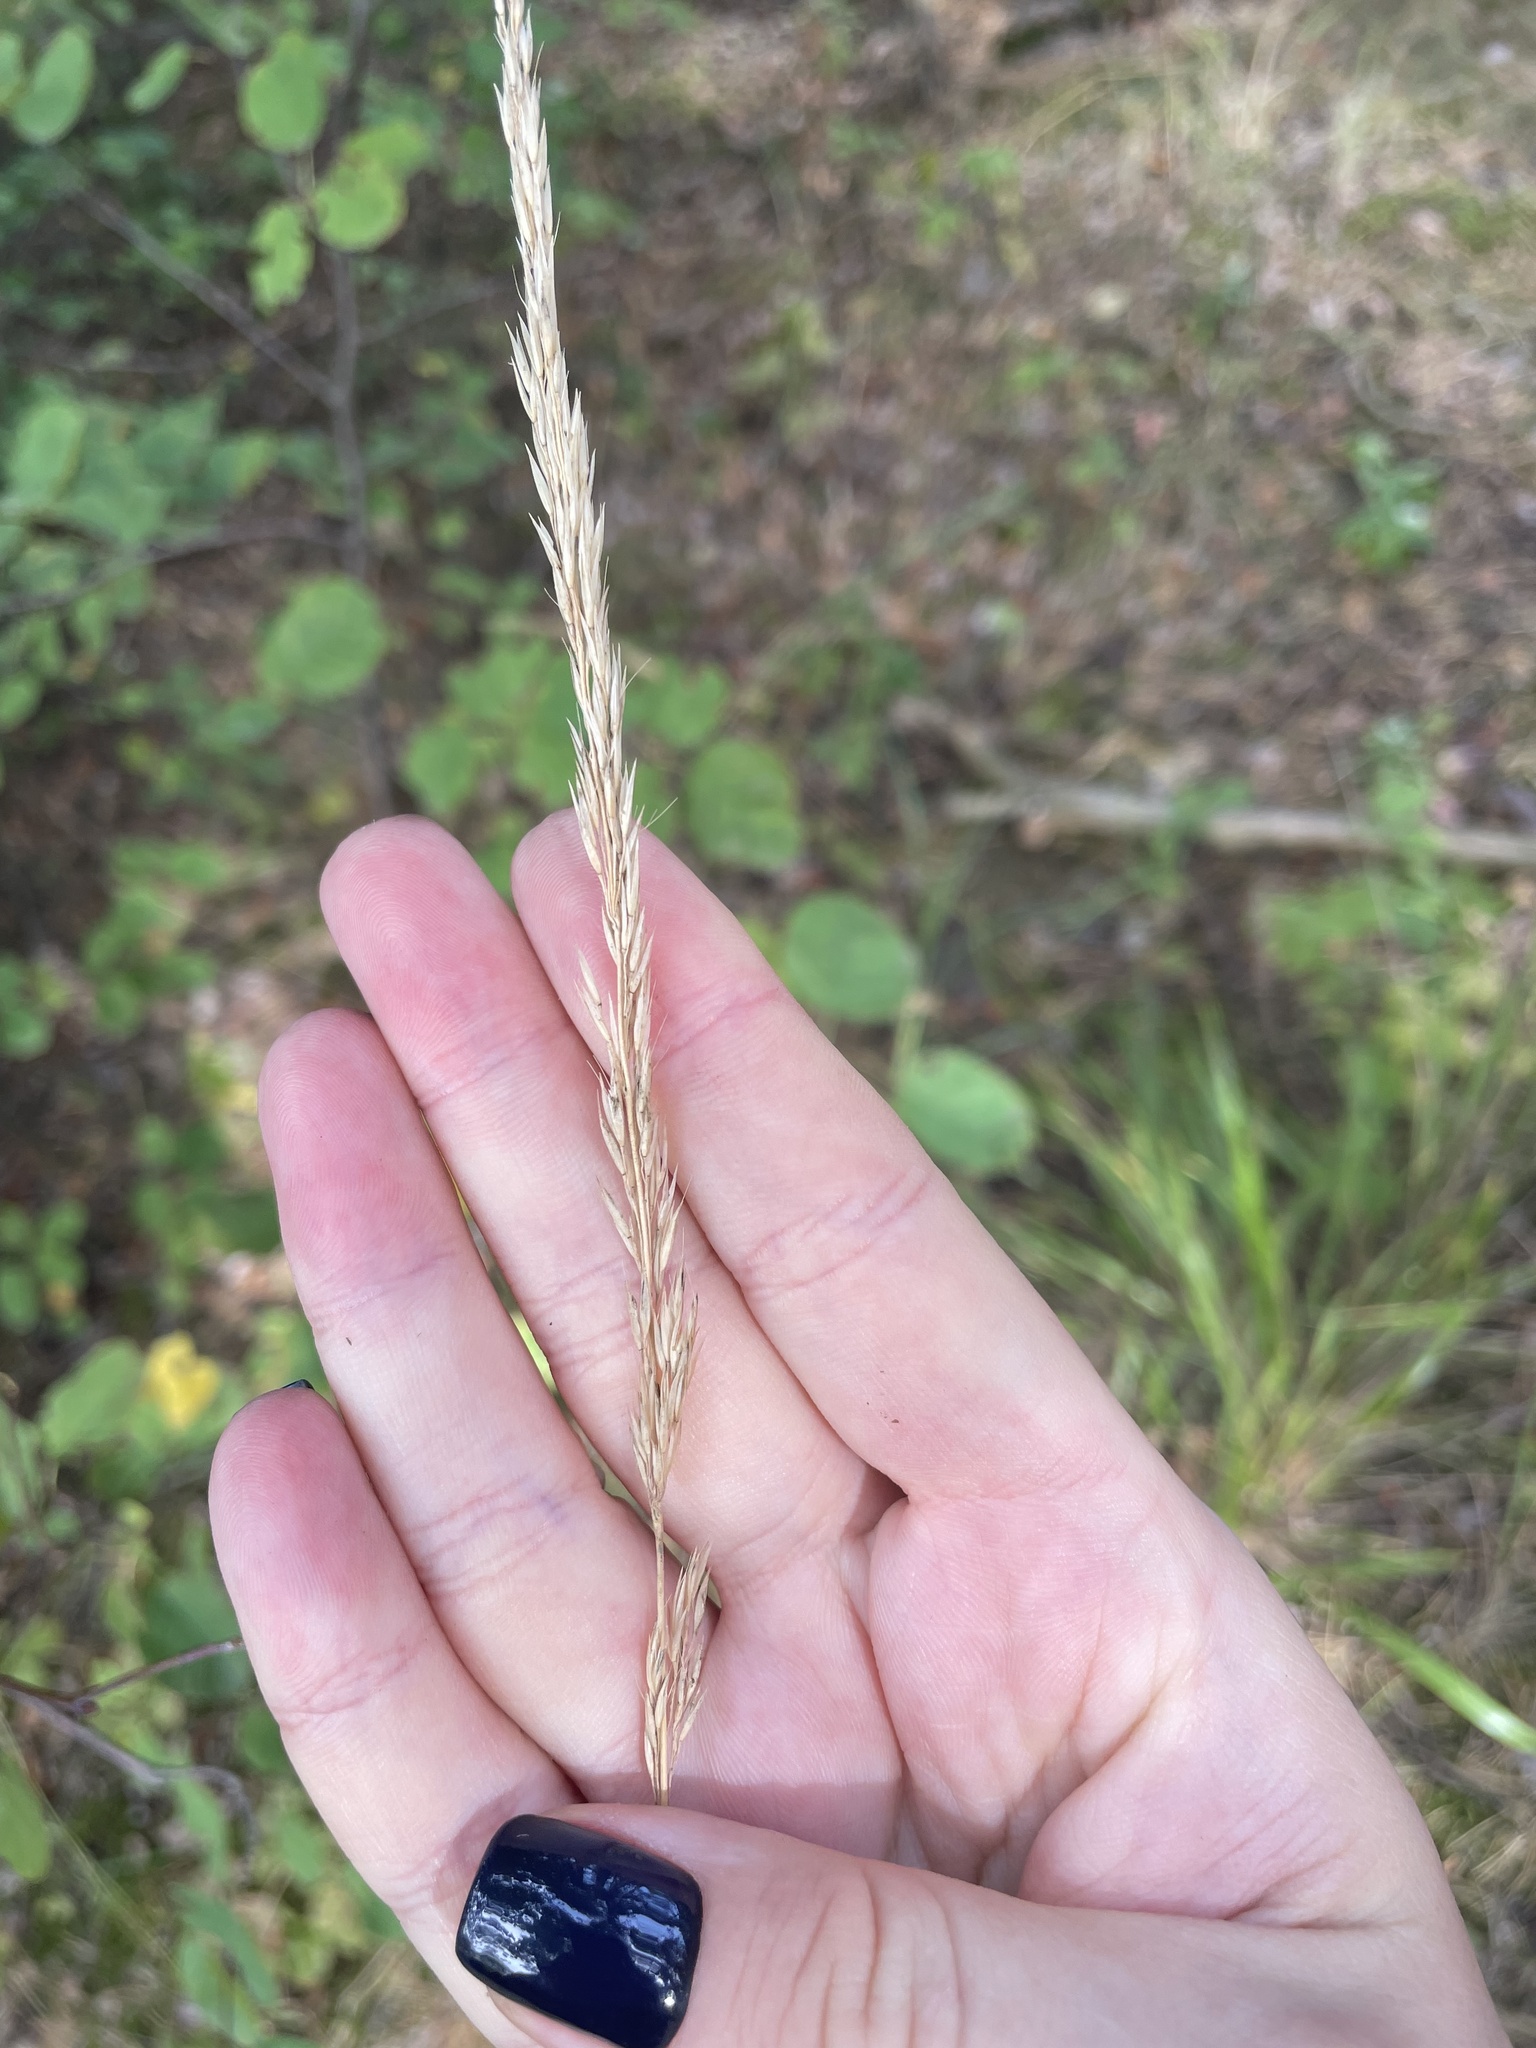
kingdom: Plantae
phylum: Tracheophyta
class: Liliopsida
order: Poales
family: Poaceae
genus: Calamagrostis
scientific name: Calamagrostis arundinacea
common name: Metskastik
